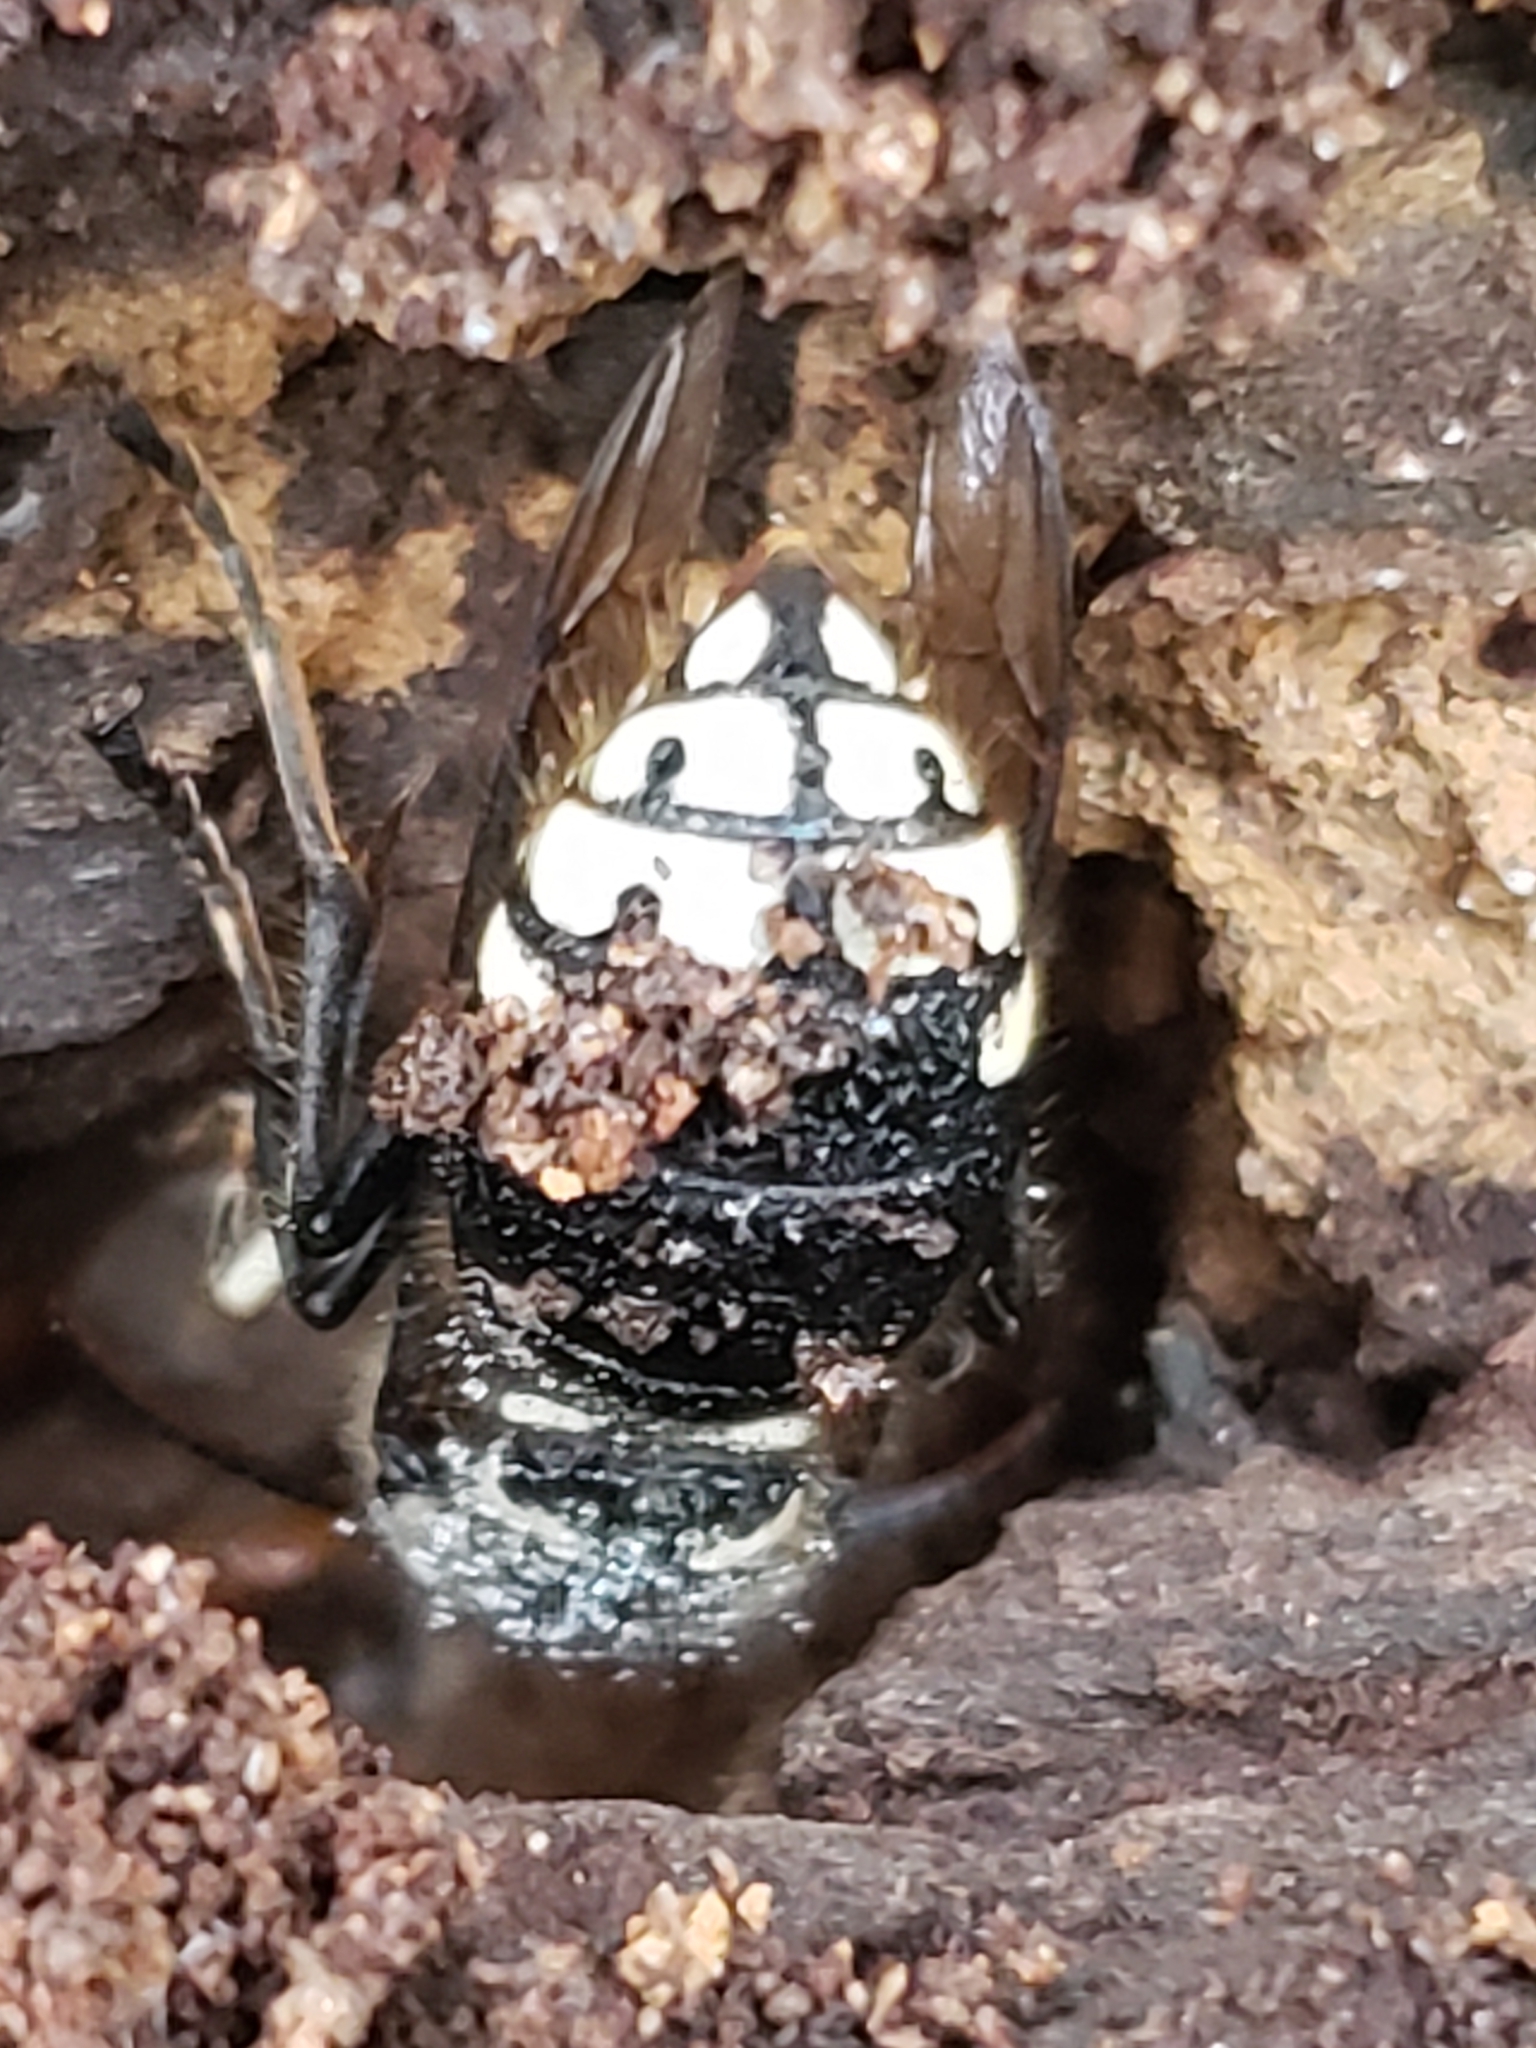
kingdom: Animalia
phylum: Arthropoda
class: Insecta
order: Hymenoptera
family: Vespidae
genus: Dolichovespula
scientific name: Dolichovespula maculata
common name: Bald-faced hornet
